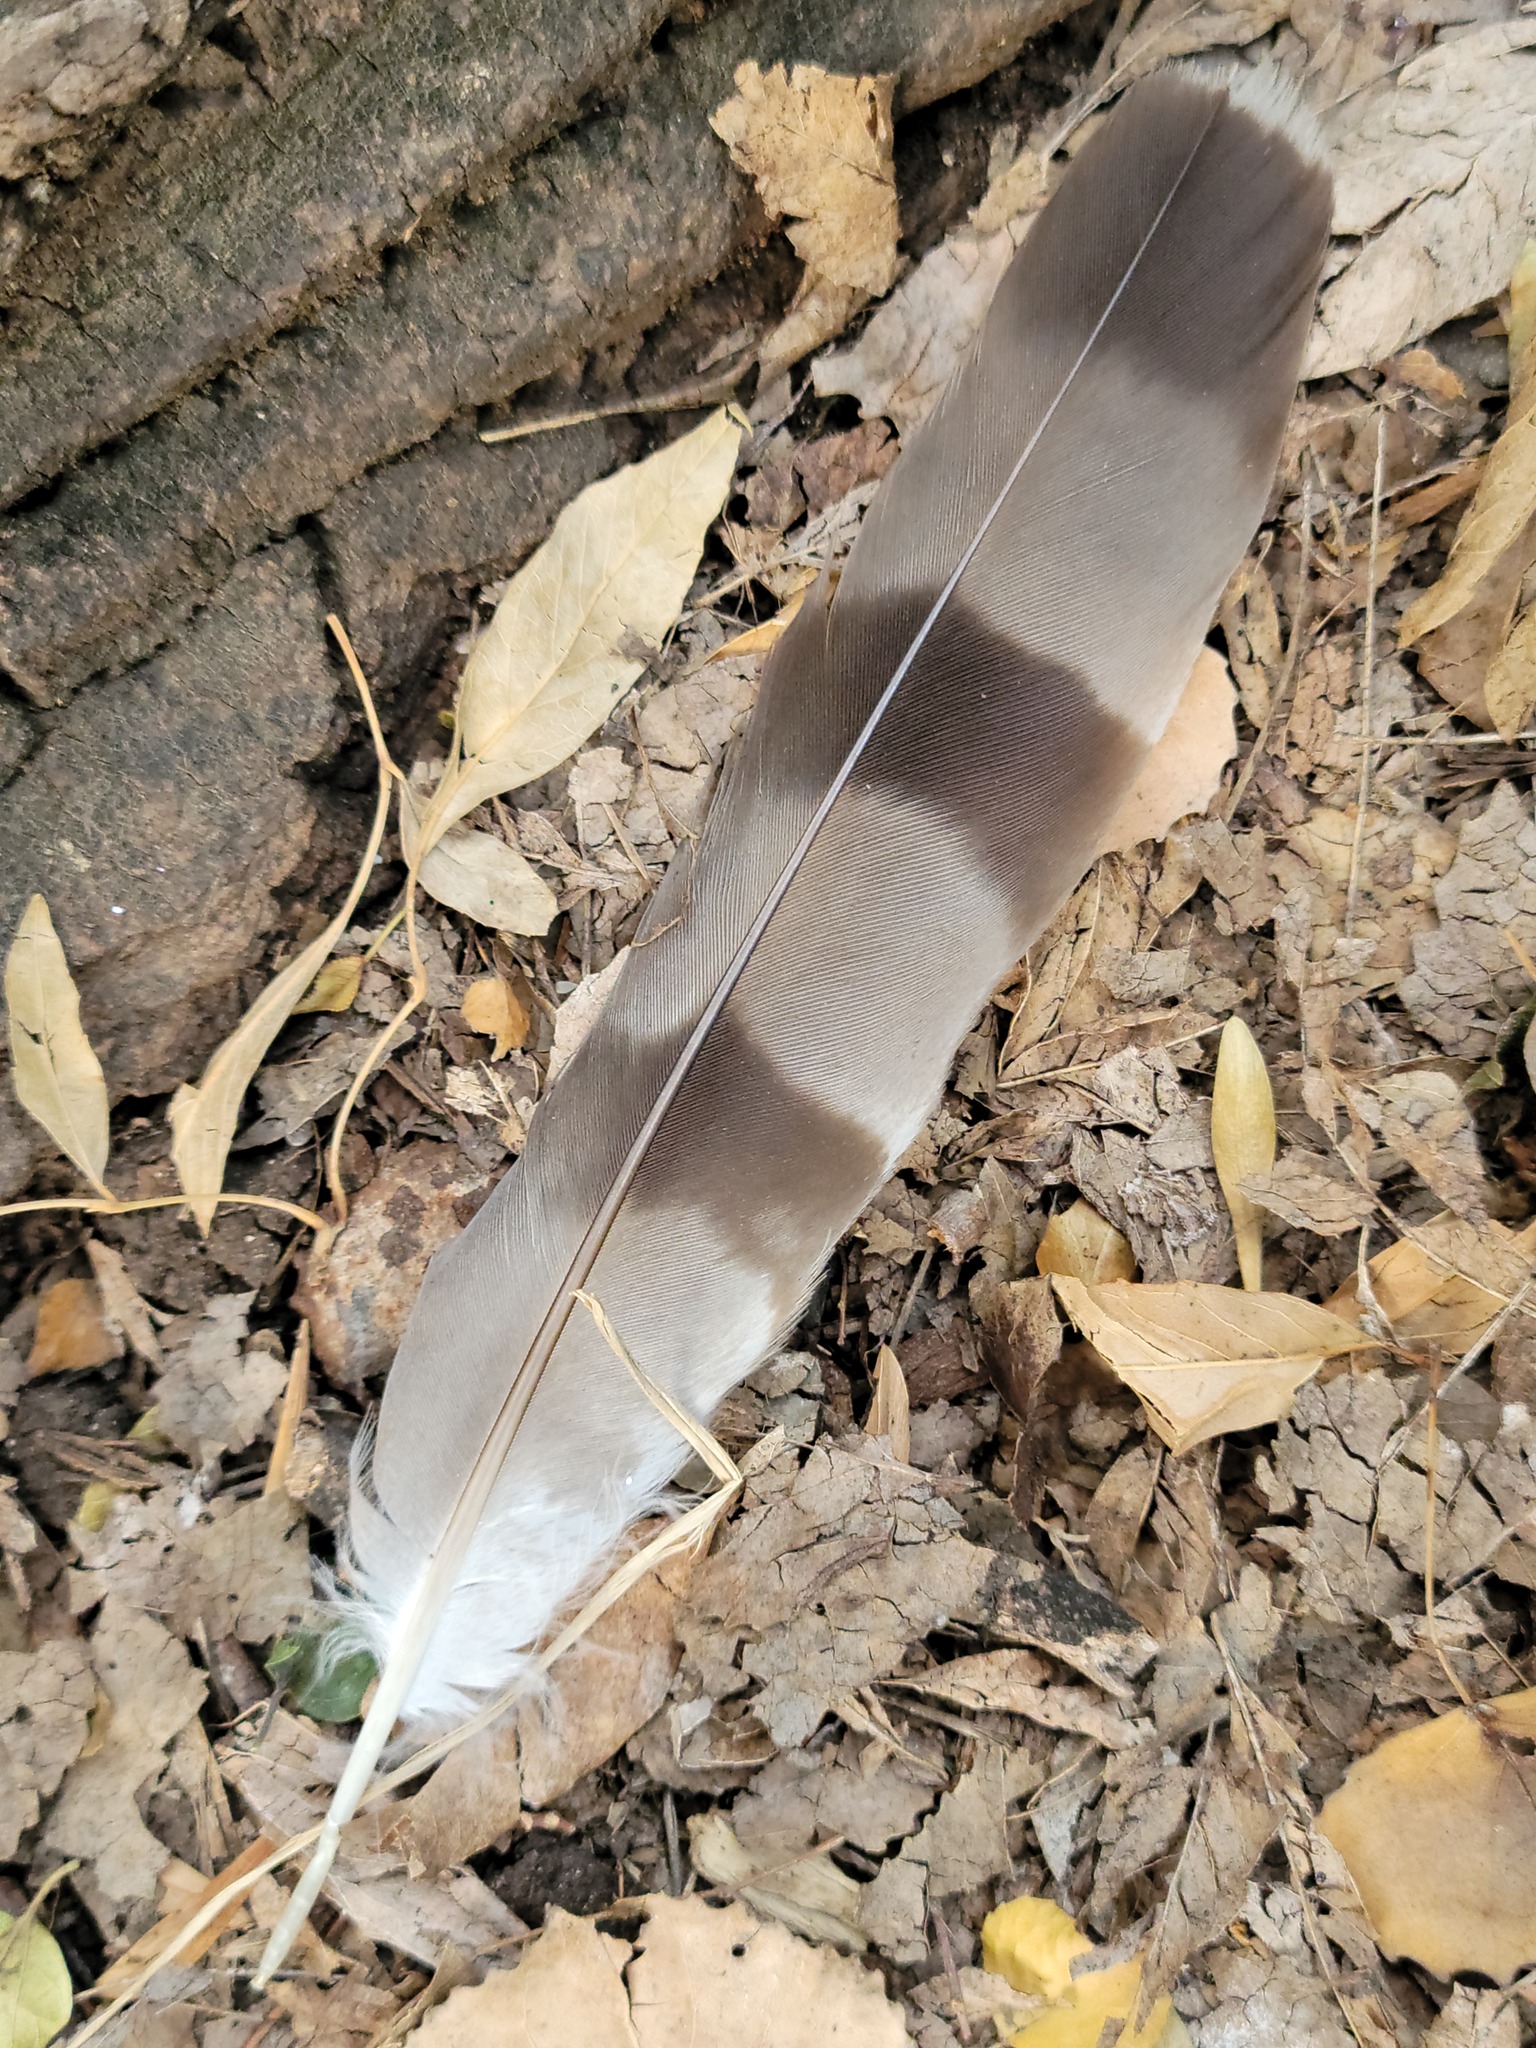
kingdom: Animalia
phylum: Chordata
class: Aves
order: Accipitriformes
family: Accipitridae
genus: Accipiter
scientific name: Accipiter cooperii
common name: Cooper's hawk
